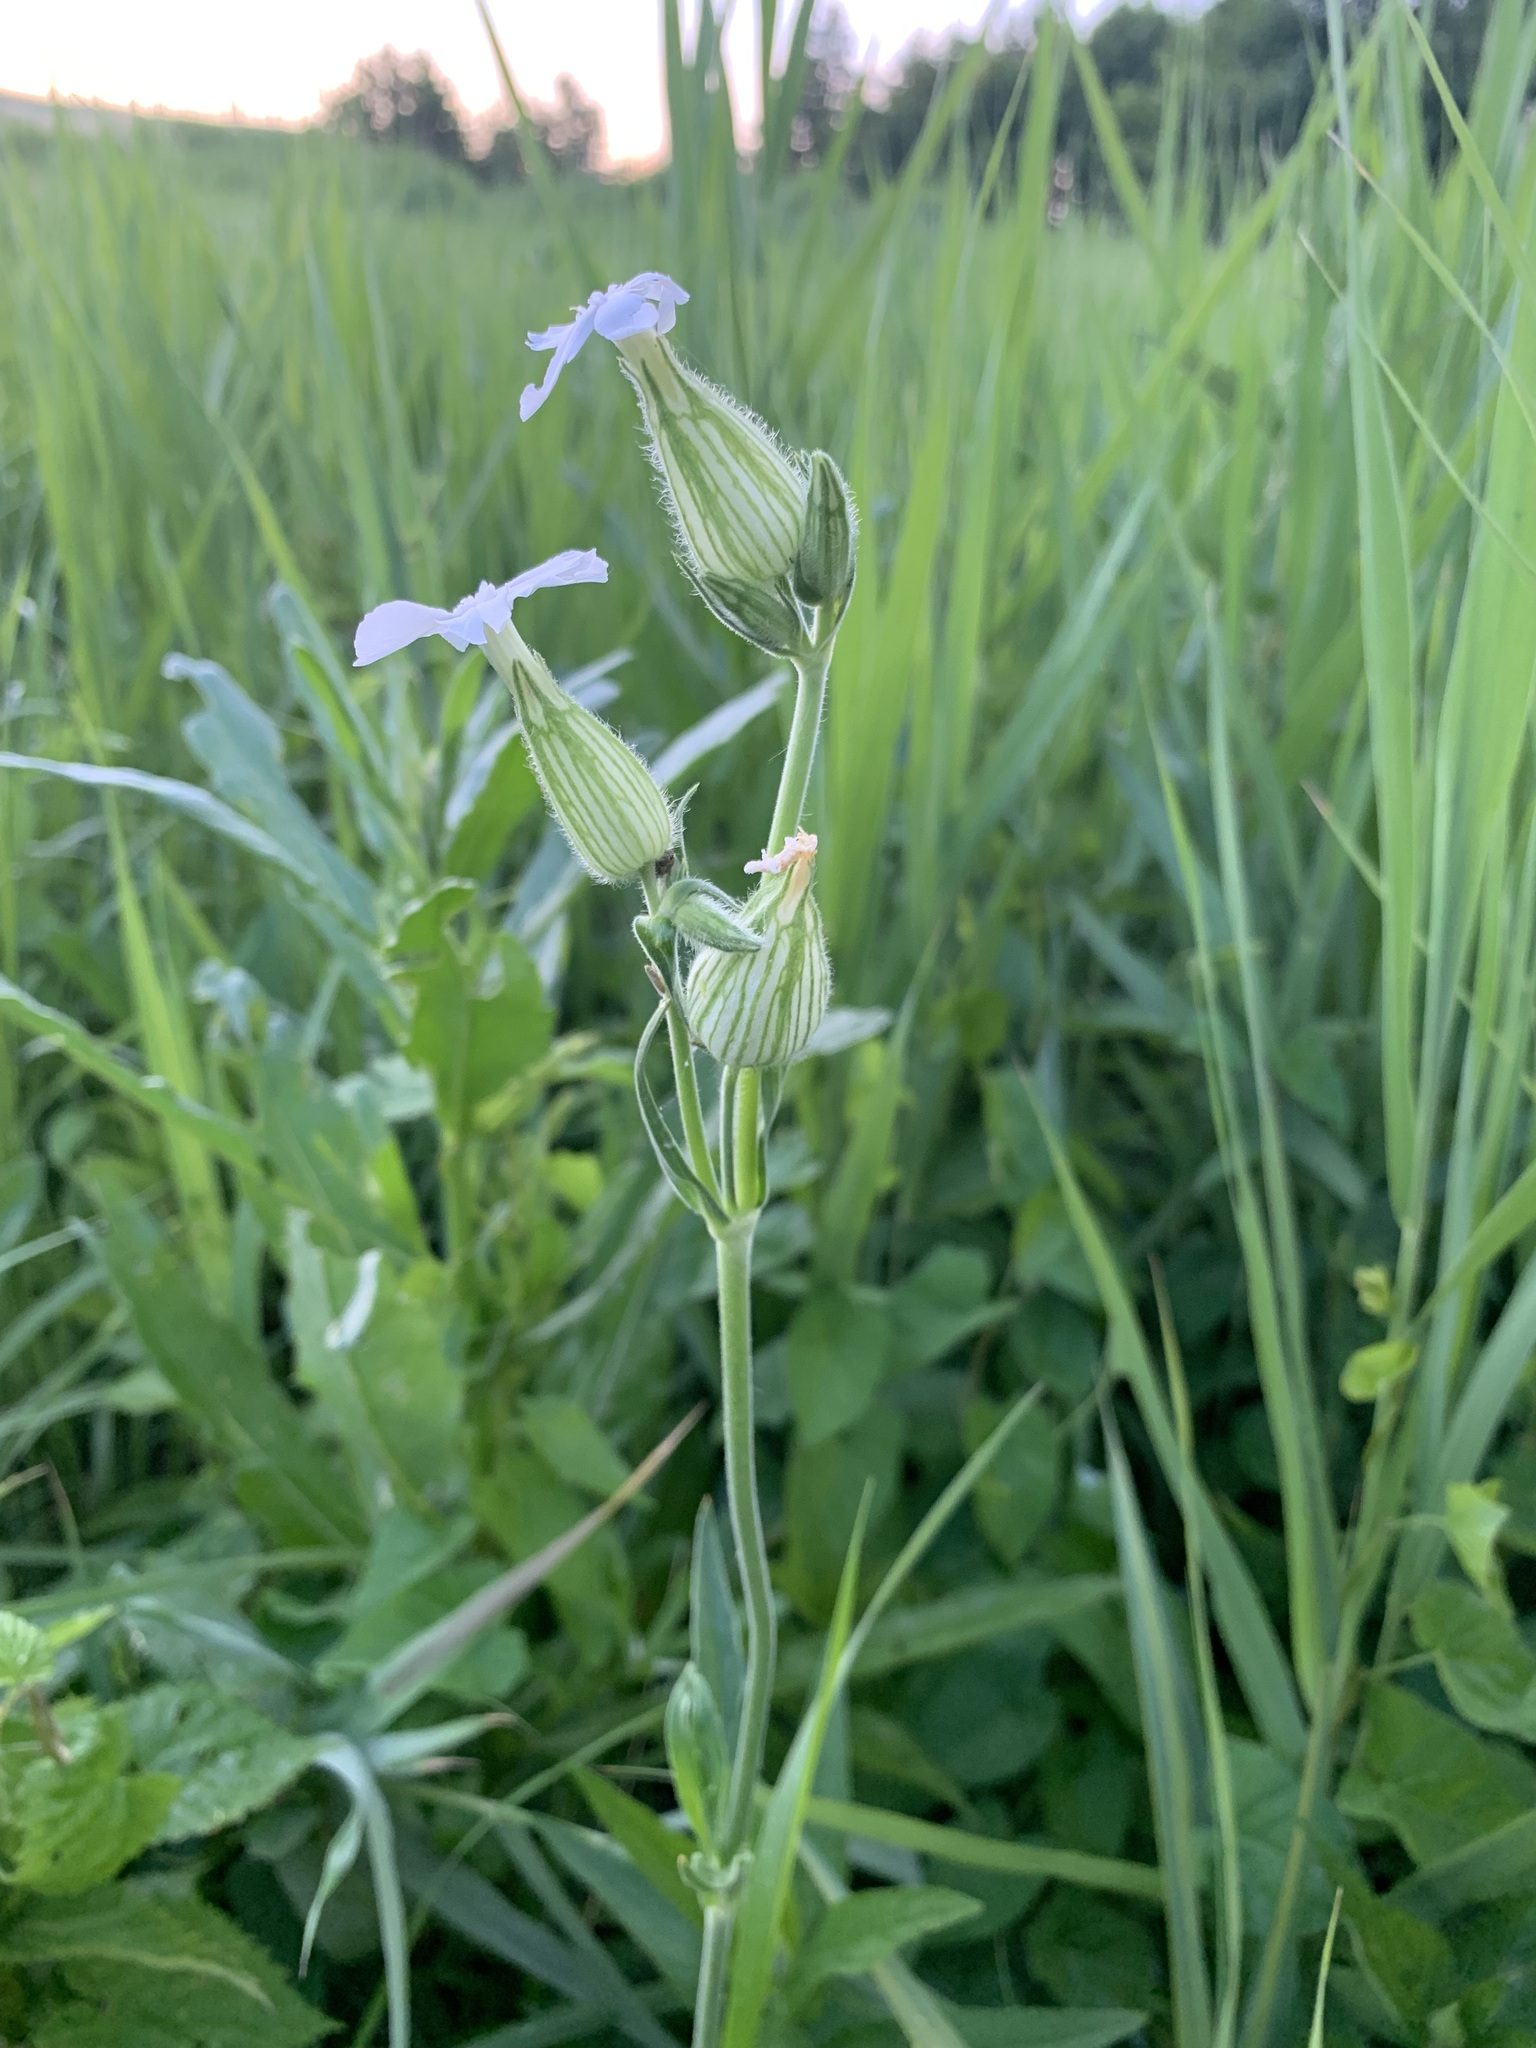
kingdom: Plantae
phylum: Tracheophyta
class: Magnoliopsida
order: Caryophyllales
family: Caryophyllaceae
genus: Silene
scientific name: Silene latifolia
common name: White campion
